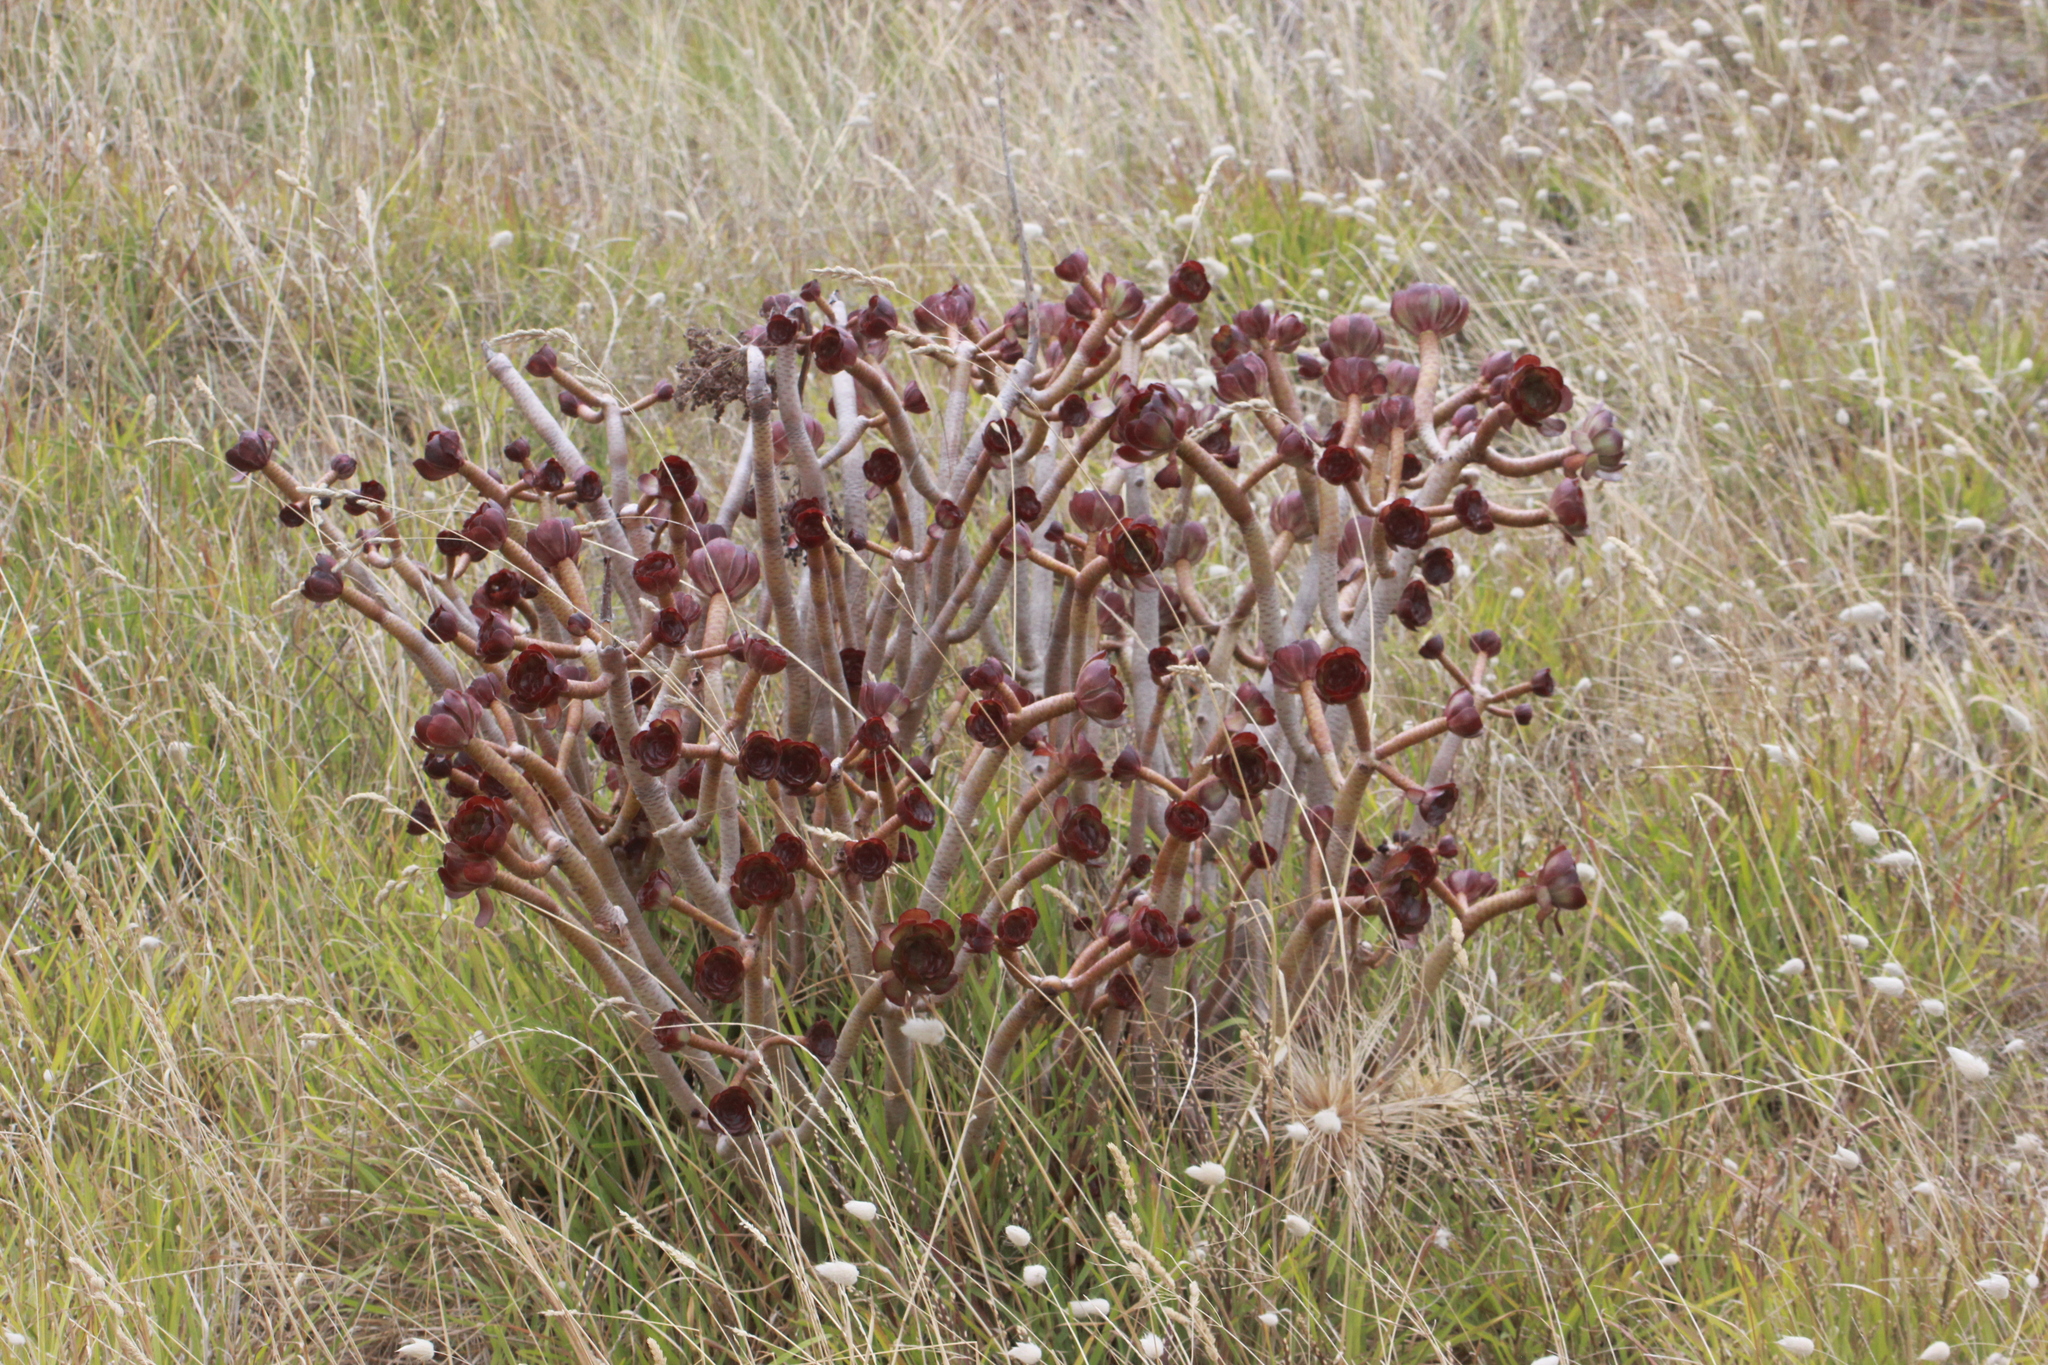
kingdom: Plantae
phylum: Tracheophyta
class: Magnoliopsida
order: Saxifragales
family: Crassulaceae
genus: Aeonium
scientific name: Aeonium arboreum
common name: Tree aeonium
